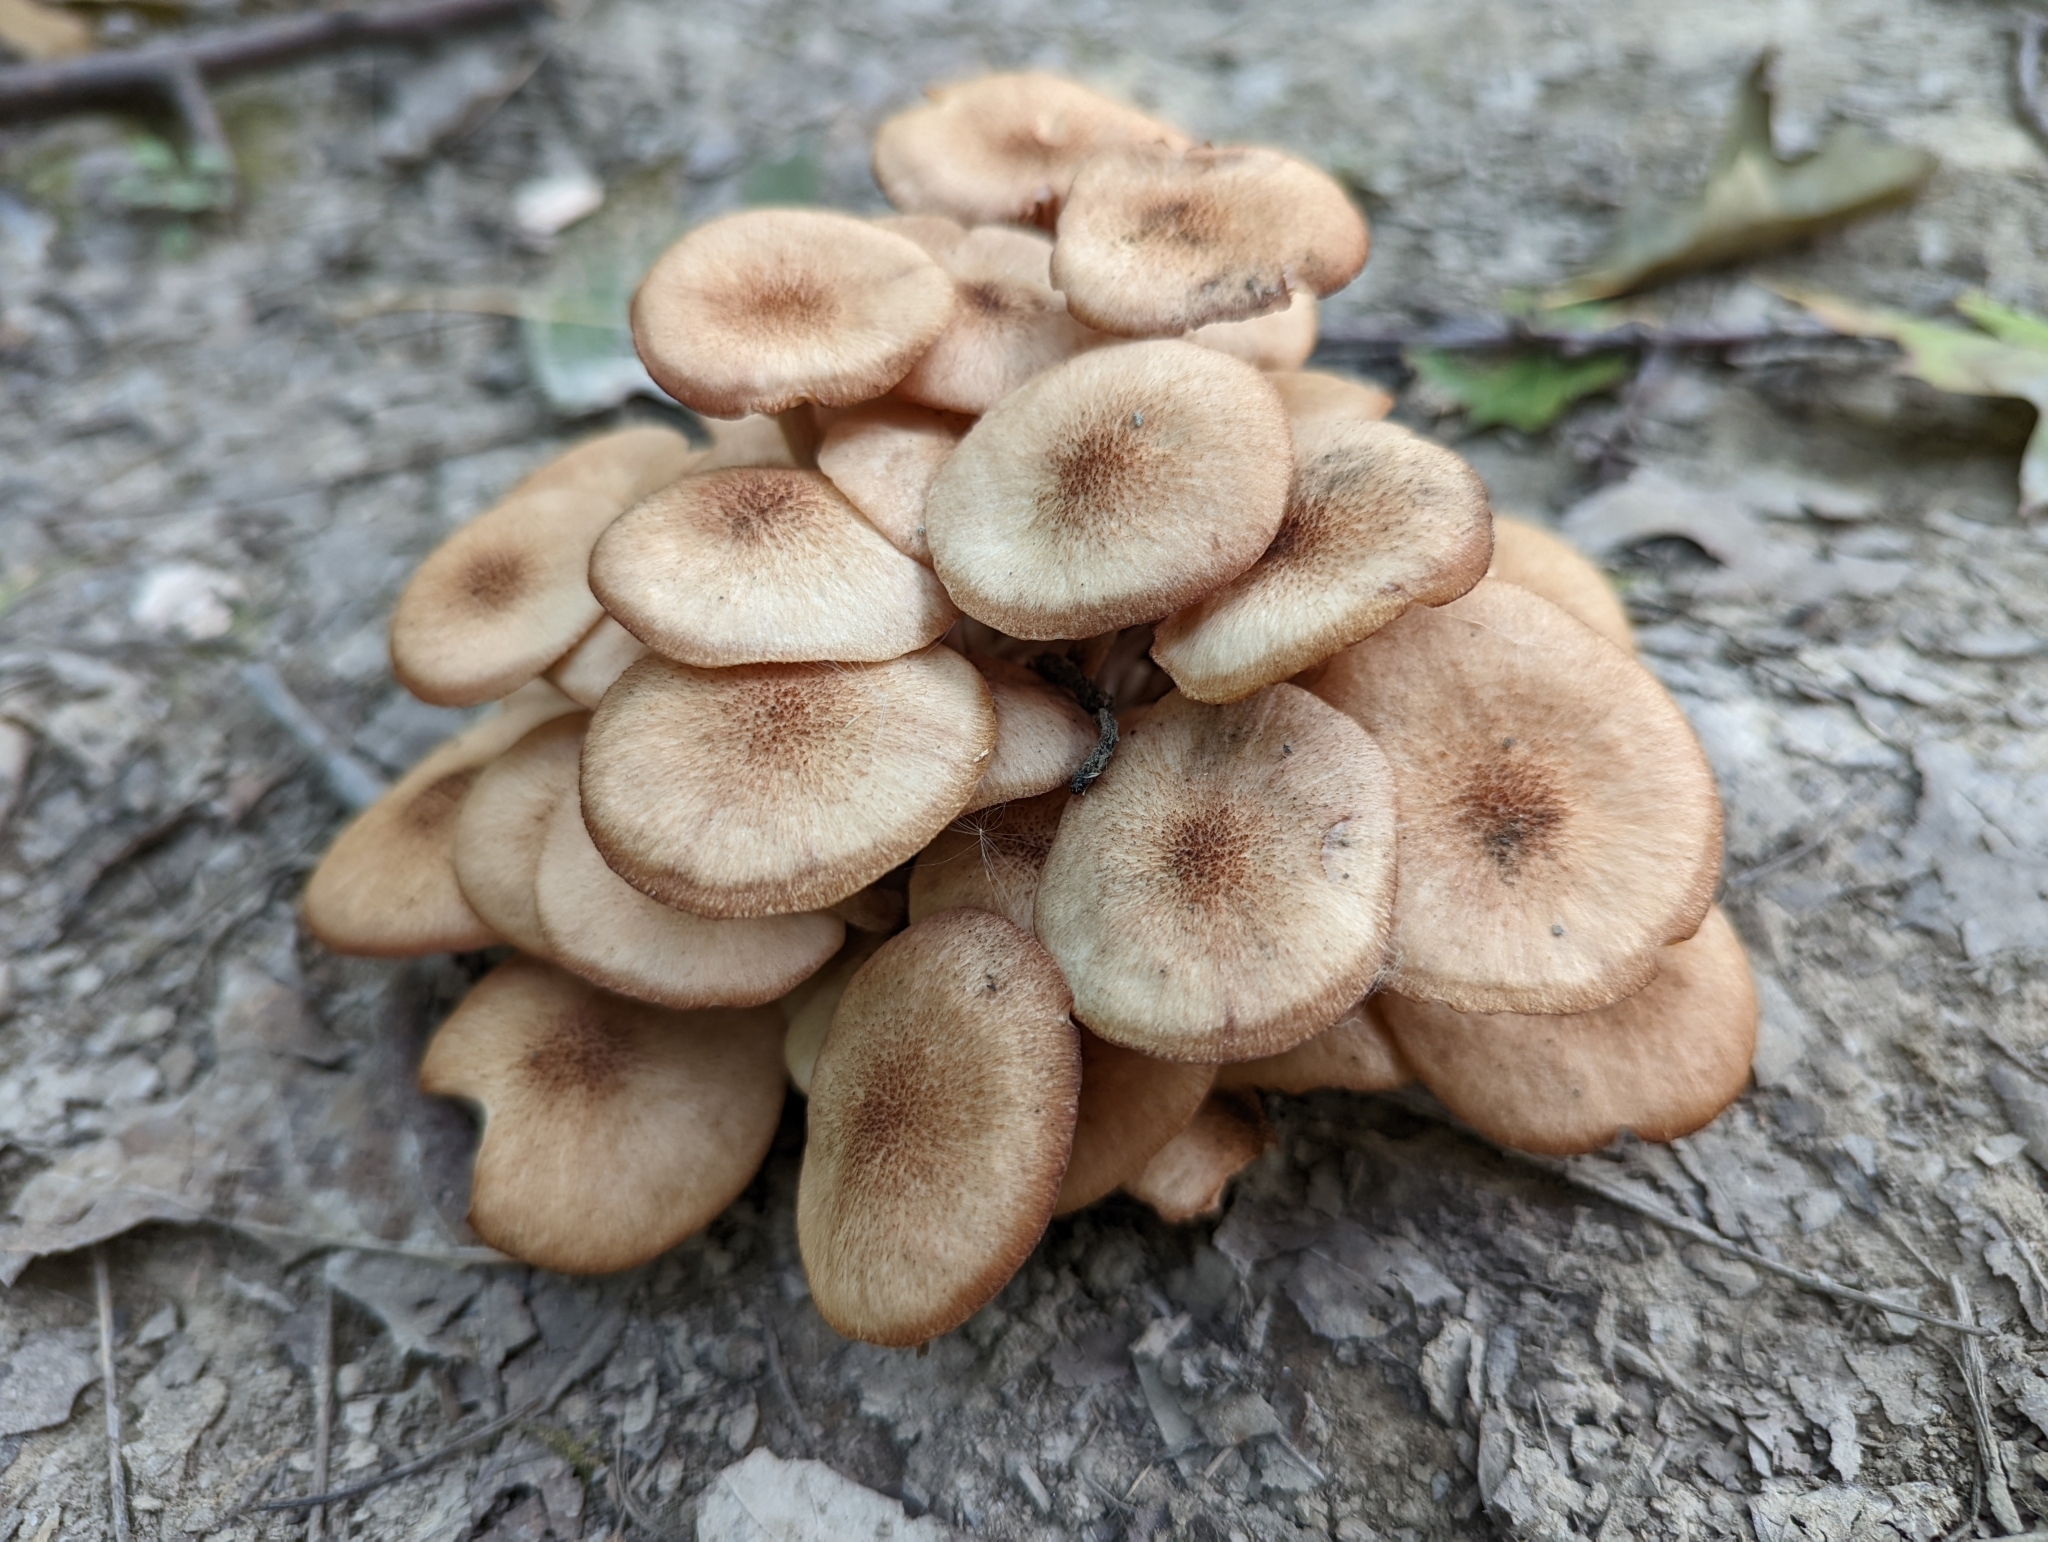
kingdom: Fungi
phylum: Basidiomycota
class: Agaricomycetes
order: Agaricales
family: Physalacriaceae
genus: Desarmillaria
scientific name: Desarmillaria caespitosa
